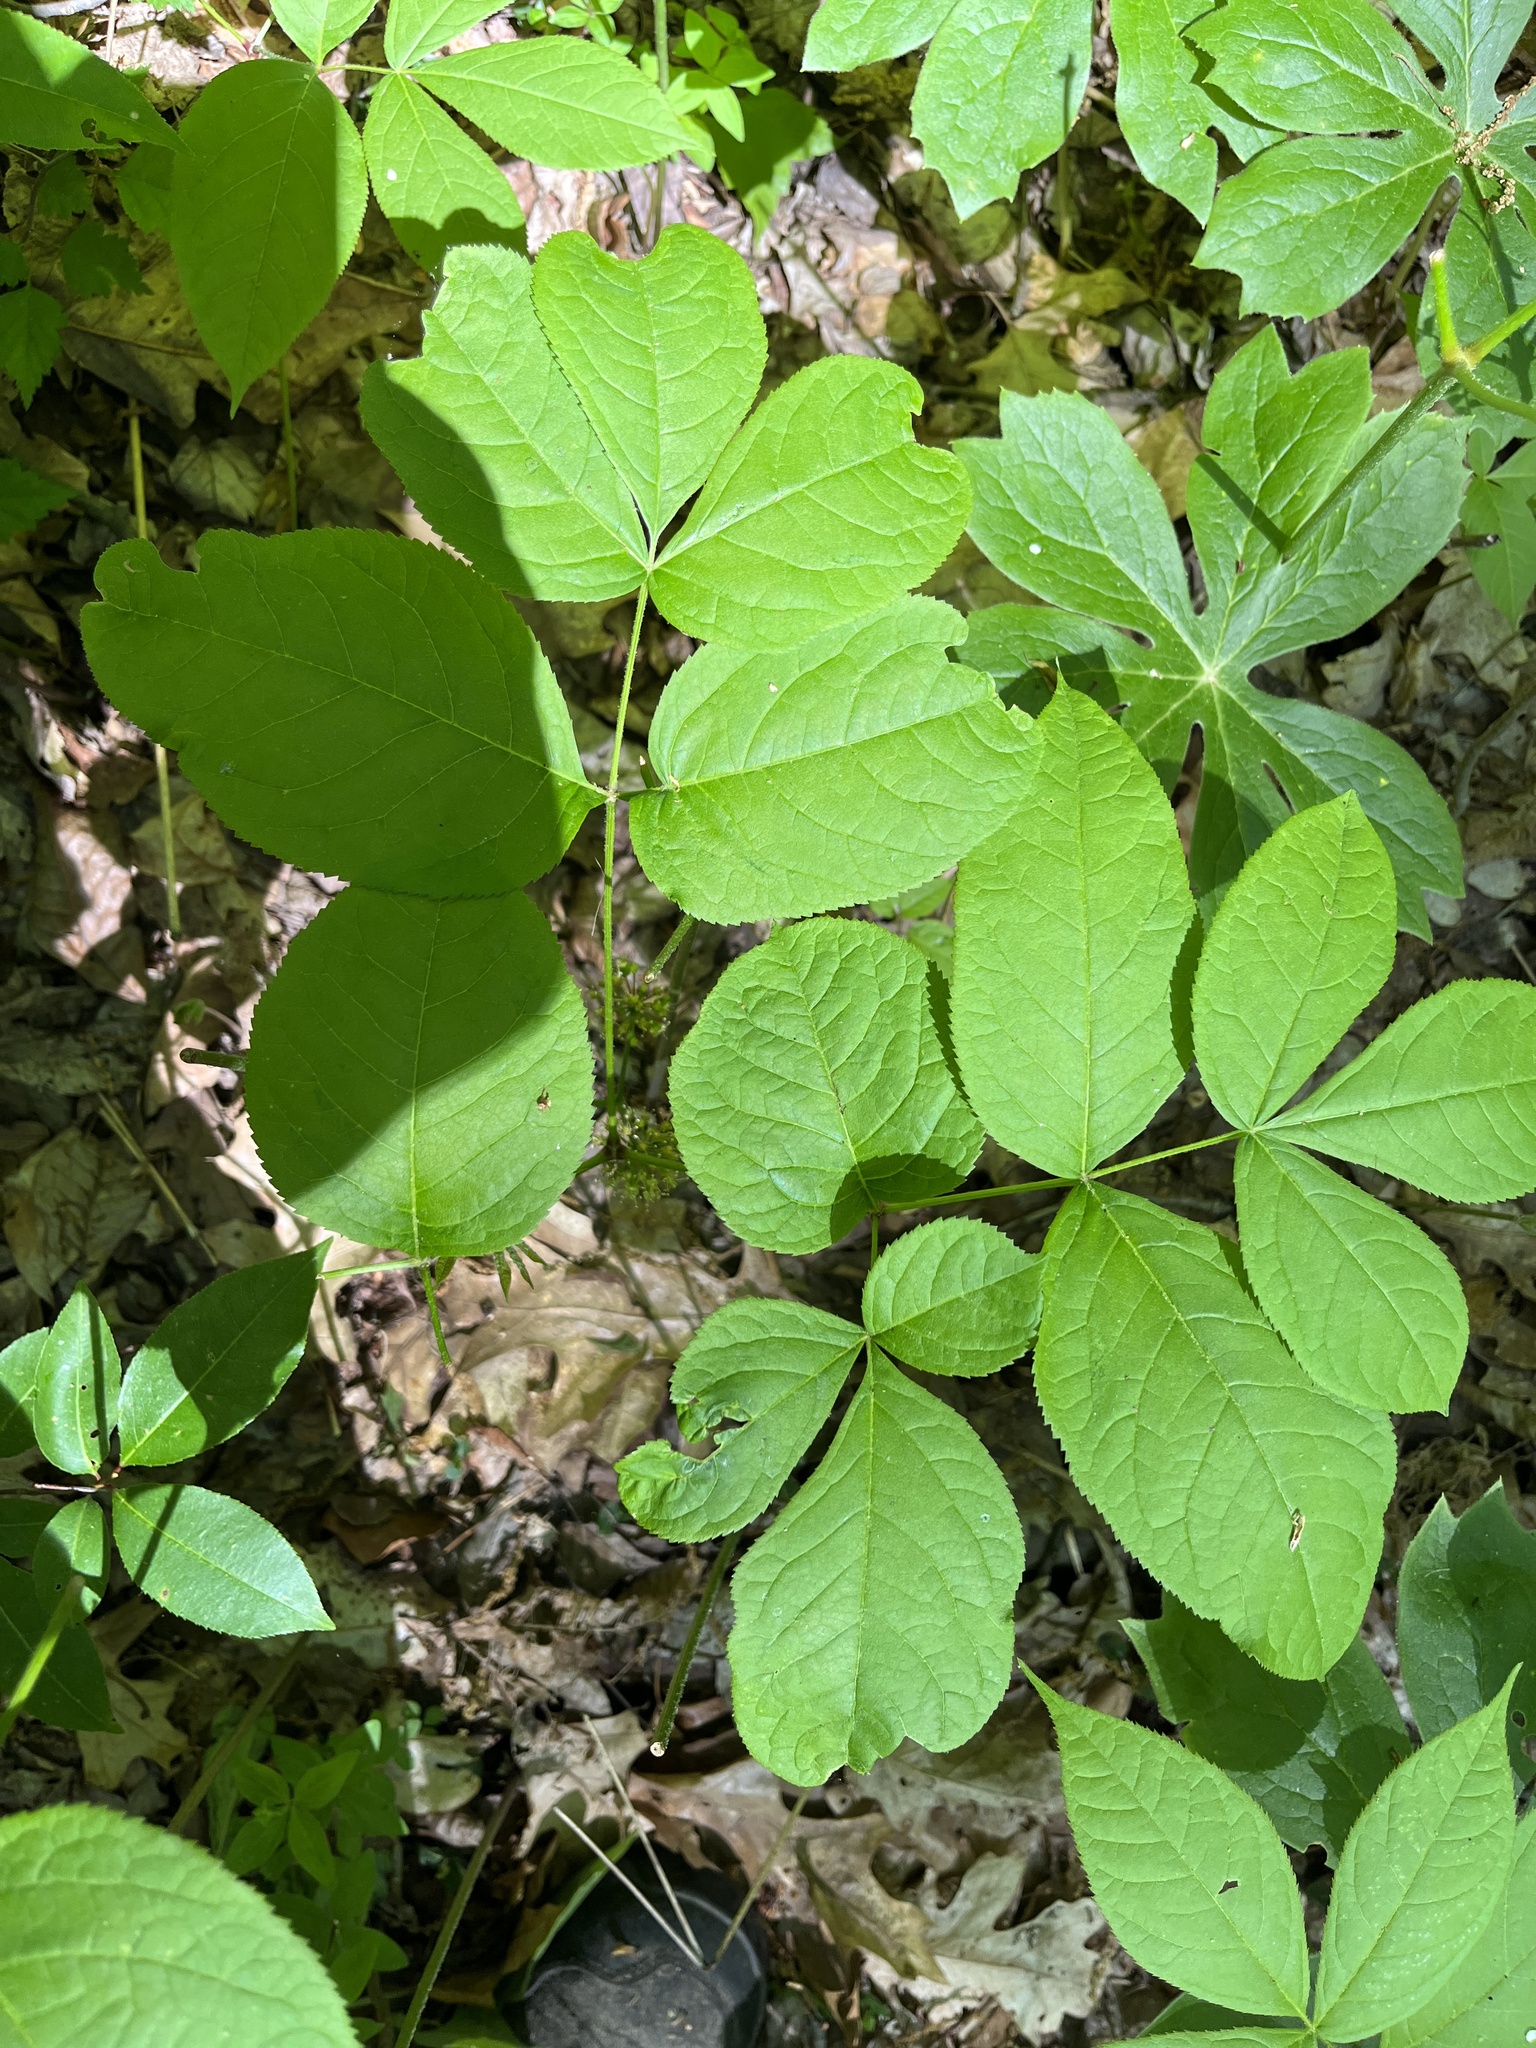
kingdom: Plantae
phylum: Tracheophyta
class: Magnoliopsida
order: Apiales
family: Araliaceae
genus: Aralia
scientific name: Aralia nudicaulis
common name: Wild sarsaparilla
